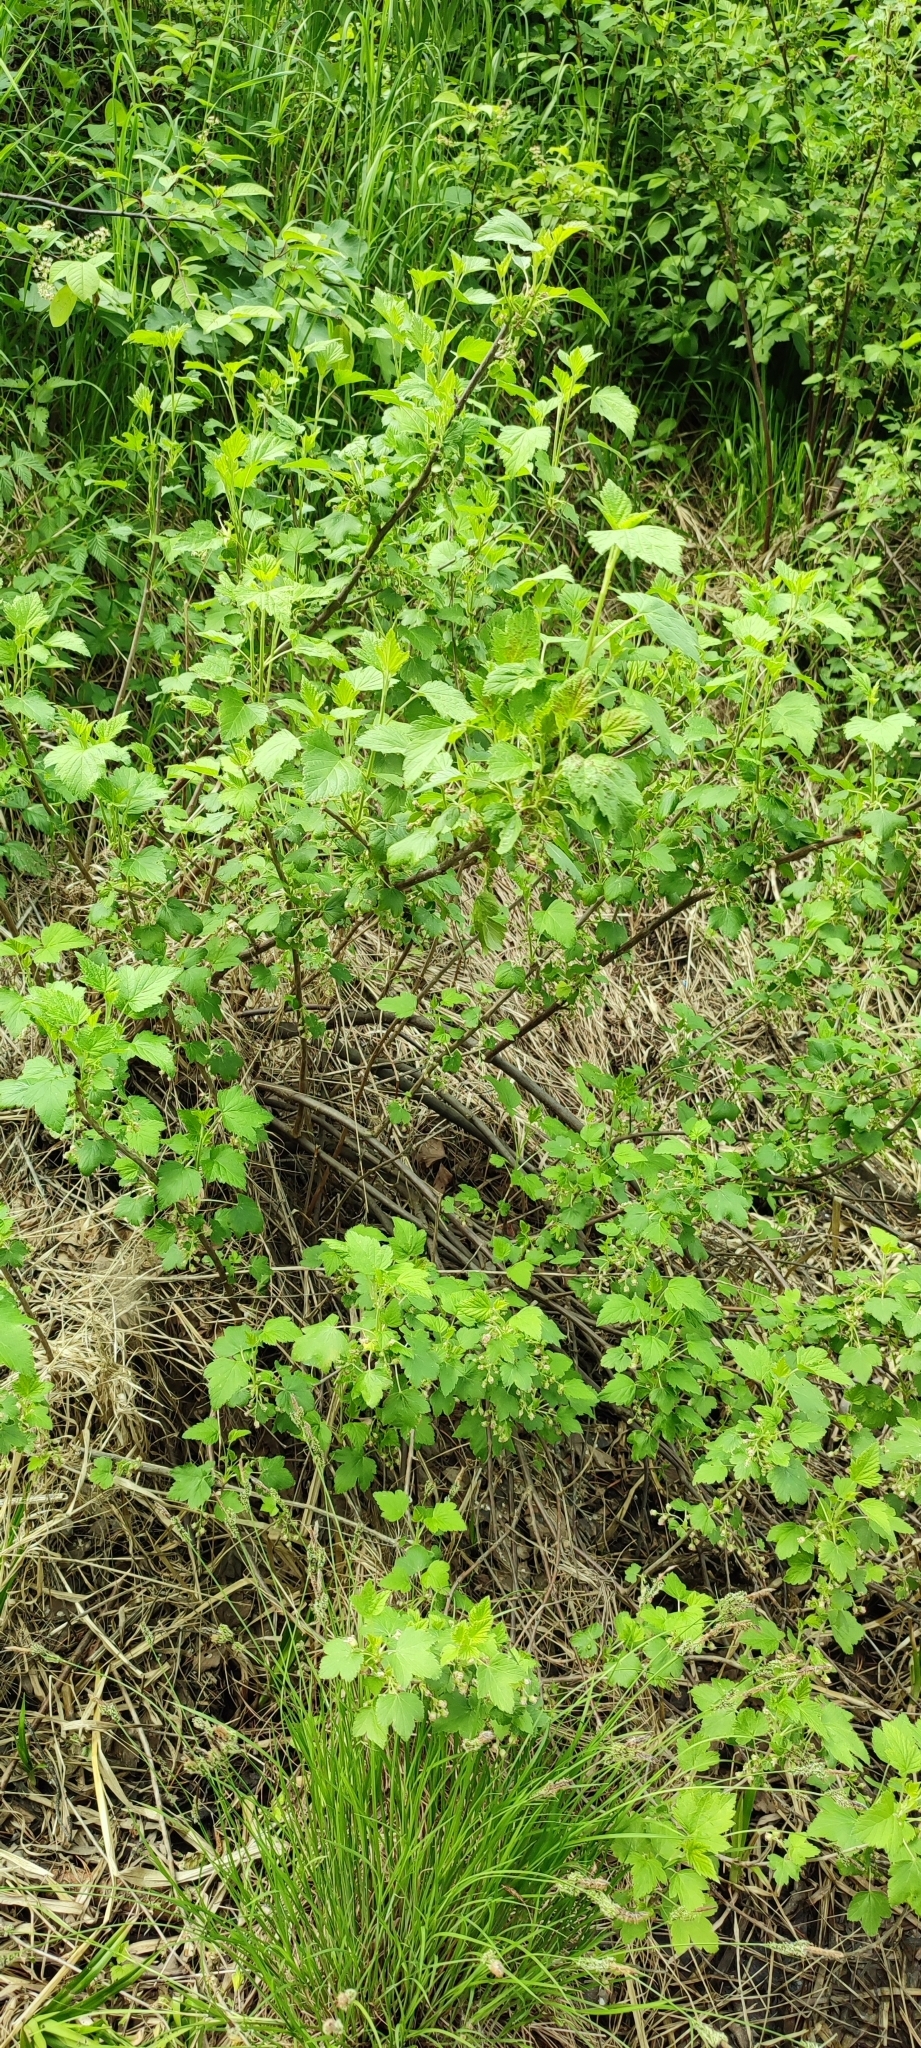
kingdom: Plantae
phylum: Tracheophyta
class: Magnoliopsida
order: Saxifragales
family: Grossulariaceae
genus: Ribes
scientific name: Ribes nigrum
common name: Black currant
